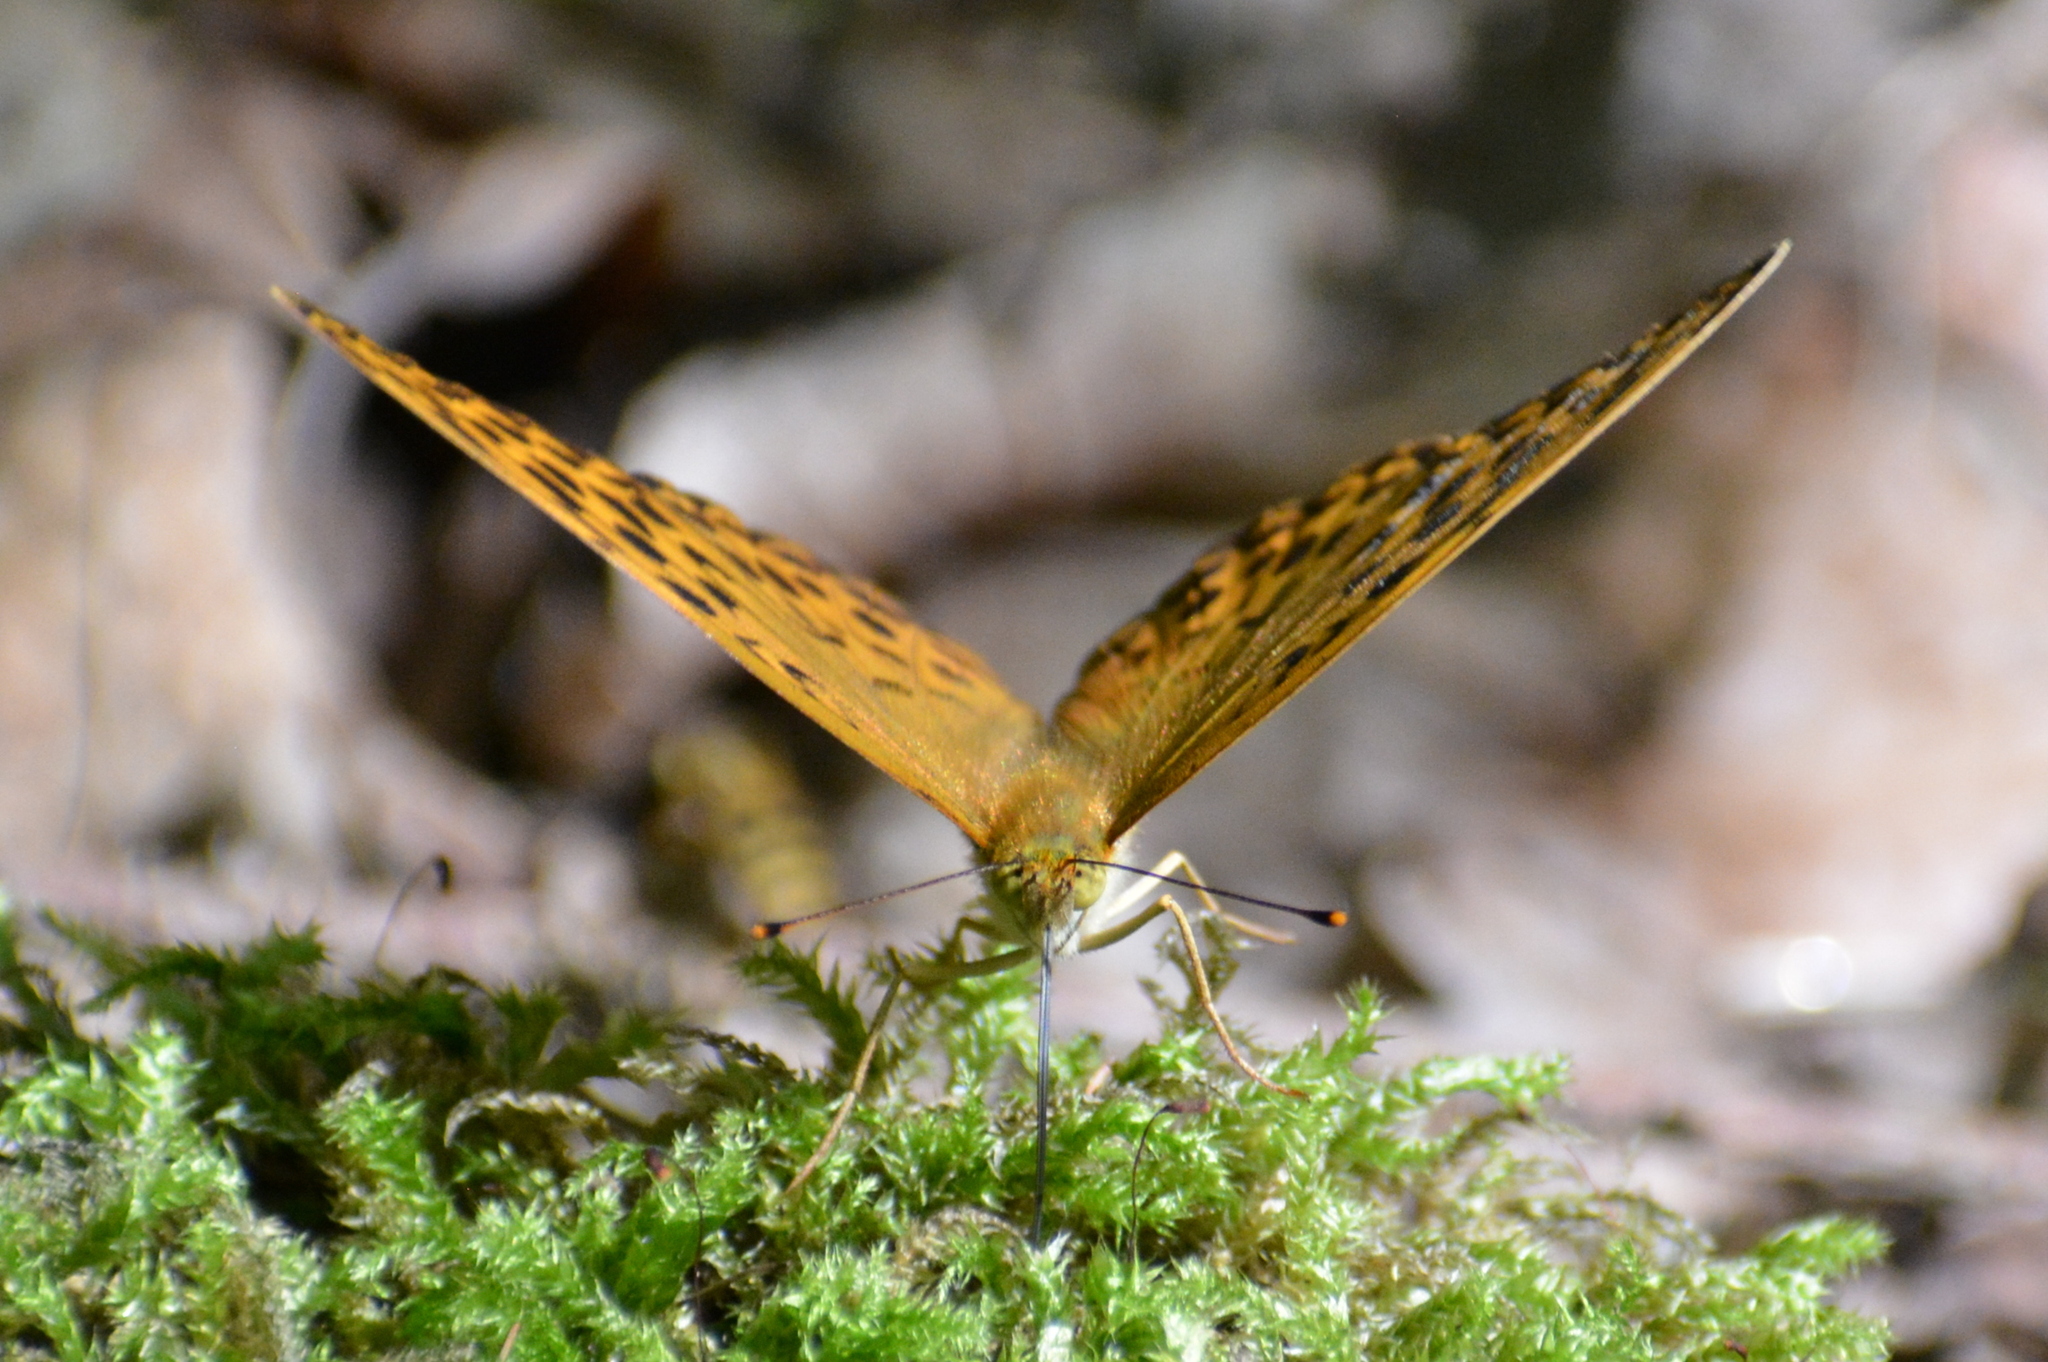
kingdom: Animalia
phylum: Arthropoda
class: Insecta
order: Lepidoptera
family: Nymphalidae
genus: Argynnis
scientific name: Argynnis paphia
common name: Silver-washed fritillary
